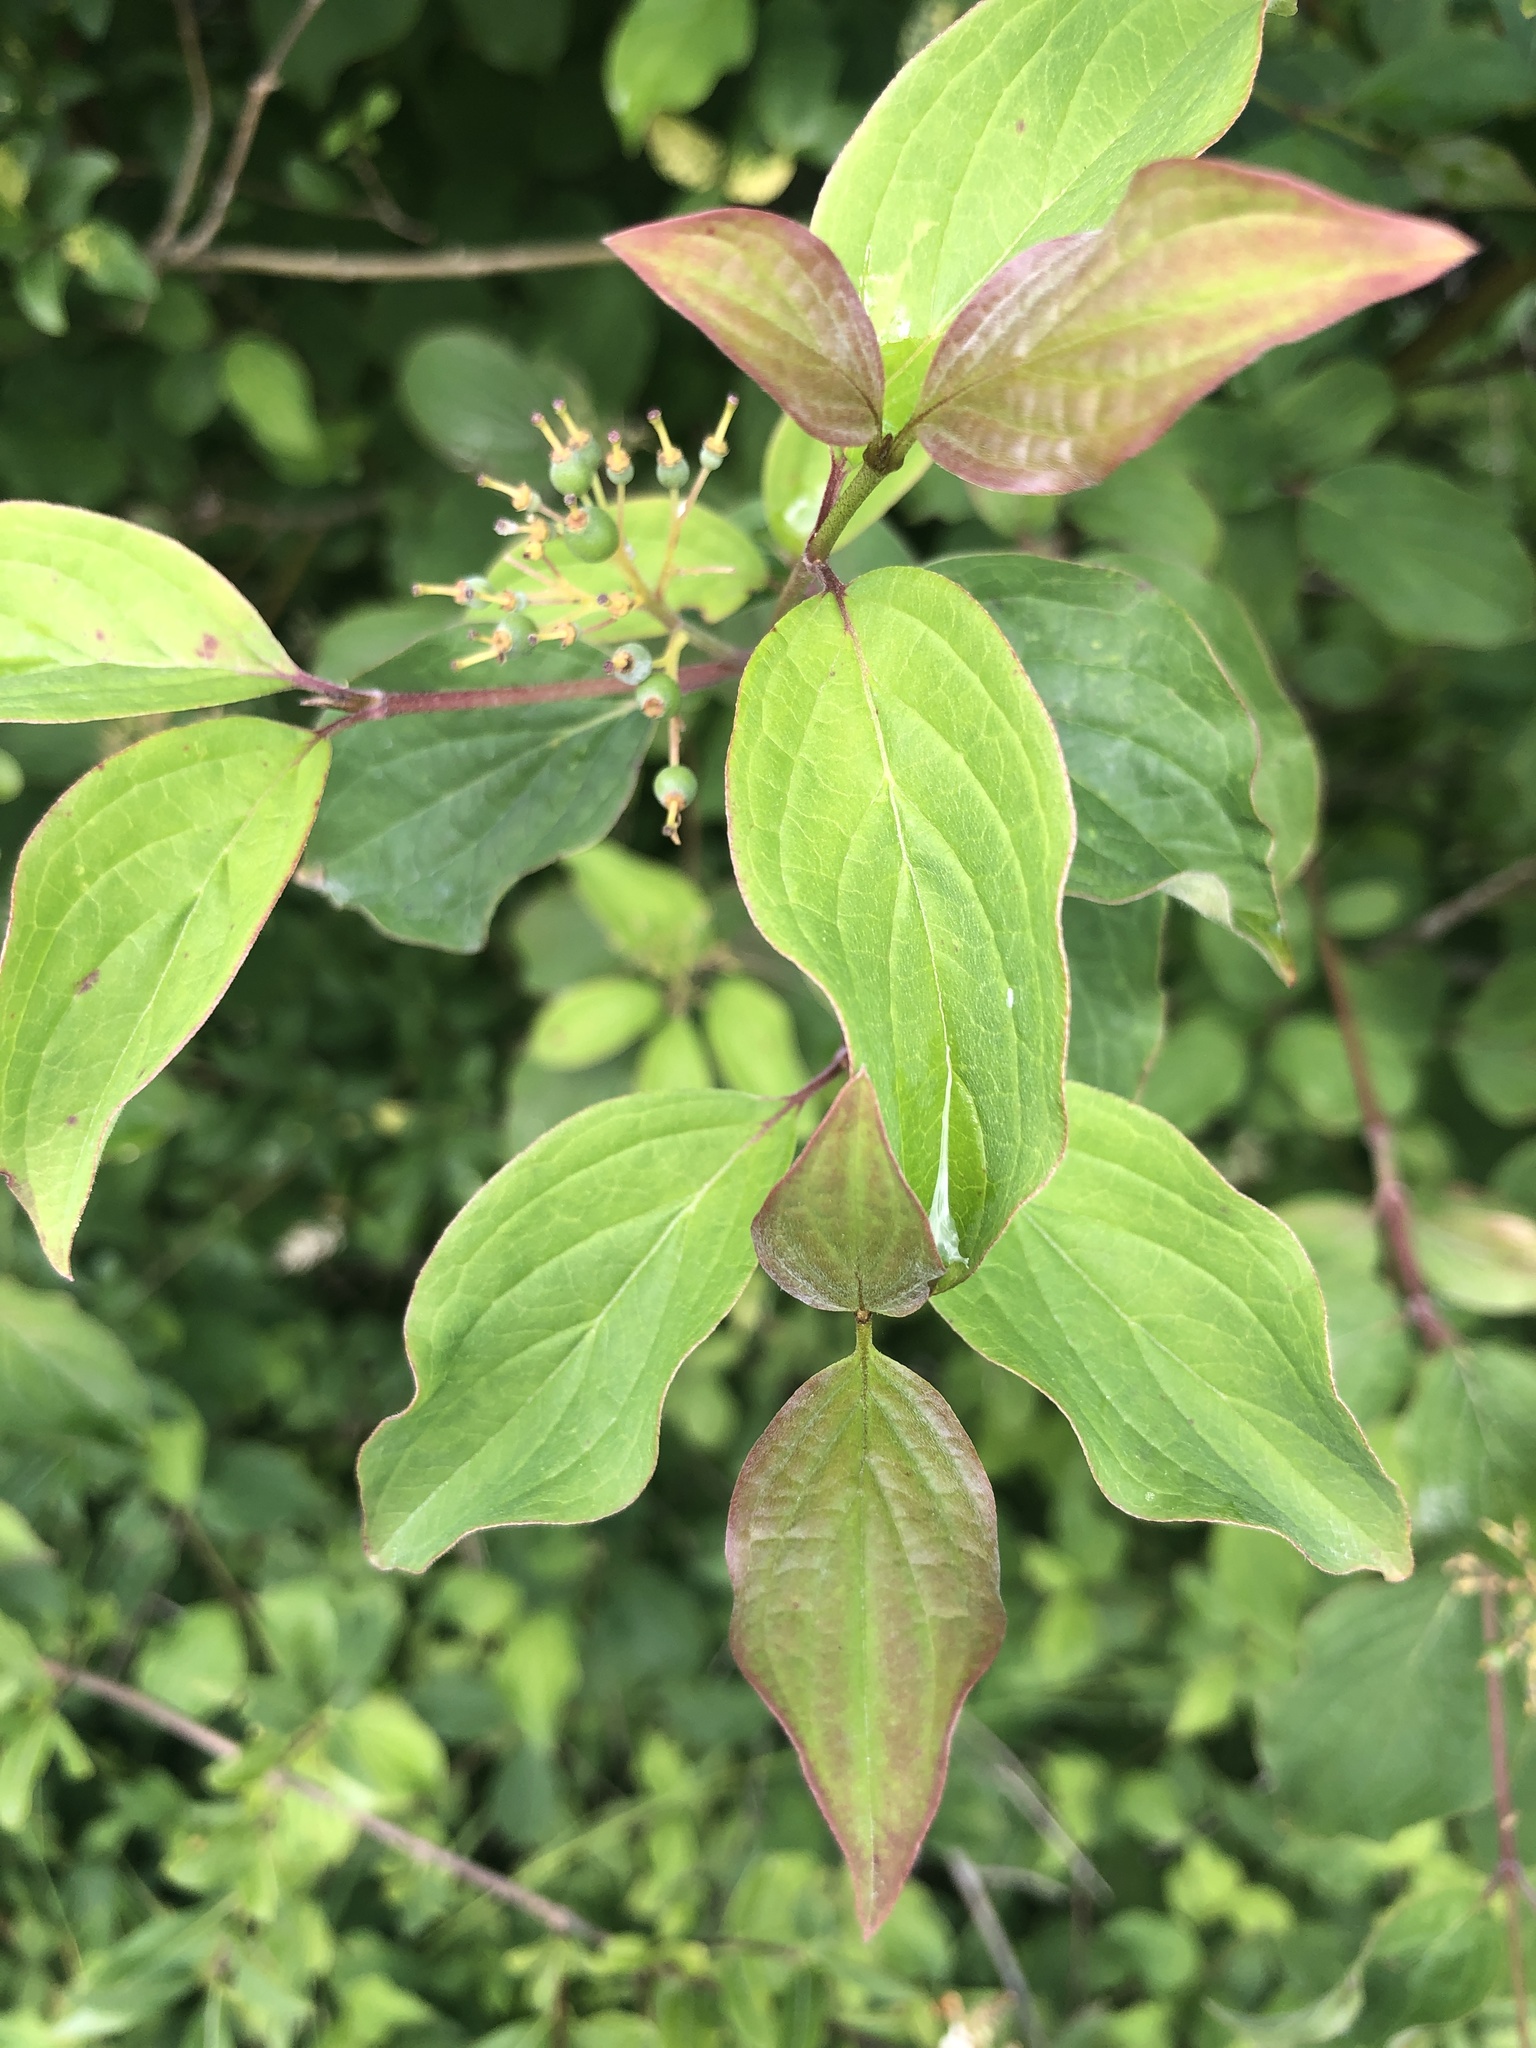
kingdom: Plantae
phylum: Tracheophyta
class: Magnoliopsida
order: Cornales
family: Cornaceae
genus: Cornus
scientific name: Cornus sanguinea
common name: Dogwood
